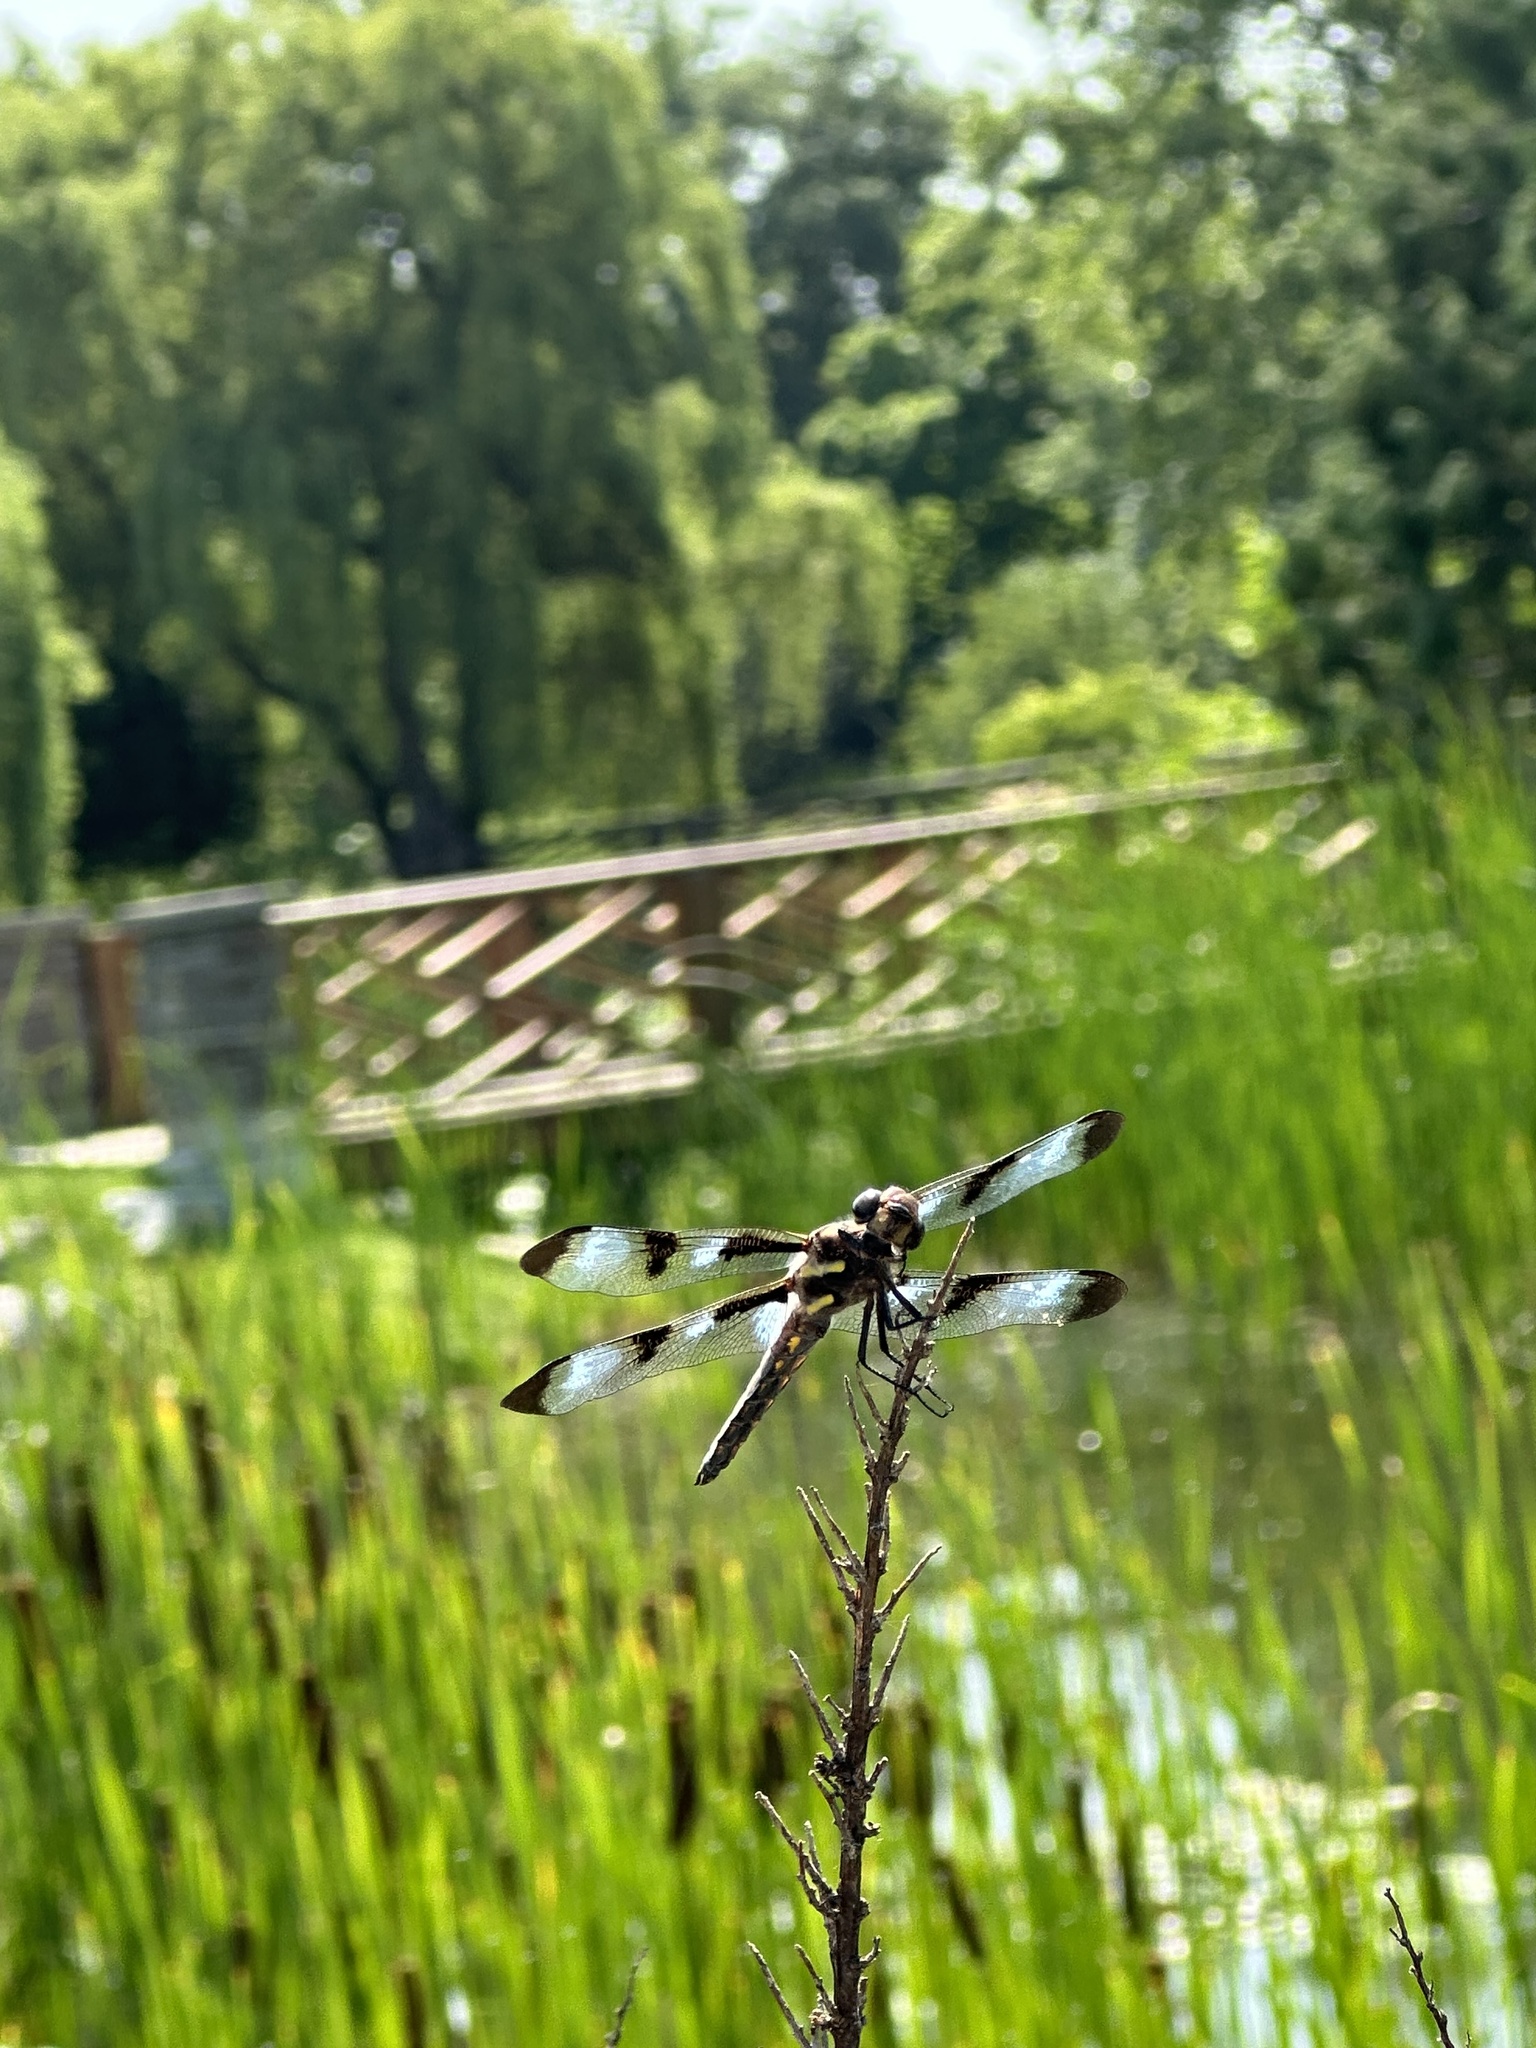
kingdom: Animalia
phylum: Arthropoda
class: Insecta
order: Odonata
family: Libellulidae
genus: Libellula
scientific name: Libellula pulchella
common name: Twelve-spotted skimmer
